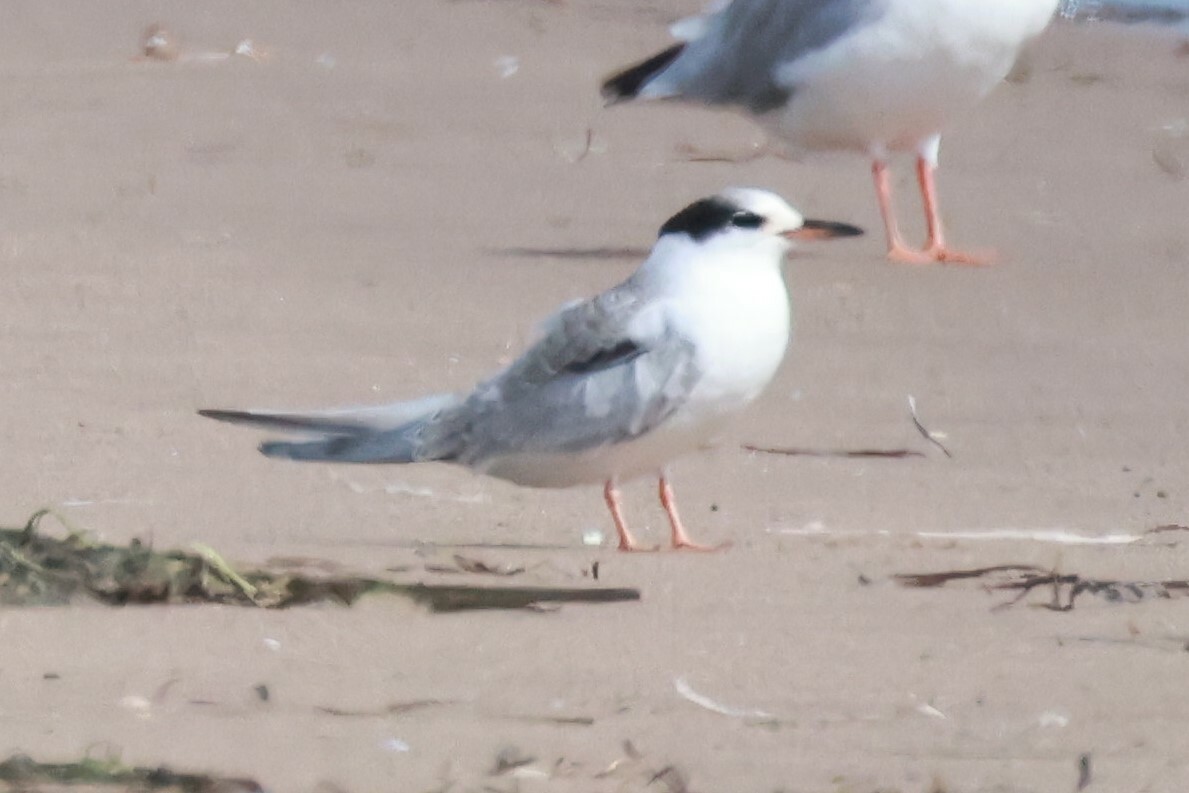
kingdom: Animalia
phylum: Chordata
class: Aves
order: Charadriiformes
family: Laridae
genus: Sterna
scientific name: Sterna hirundo
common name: Common tern
